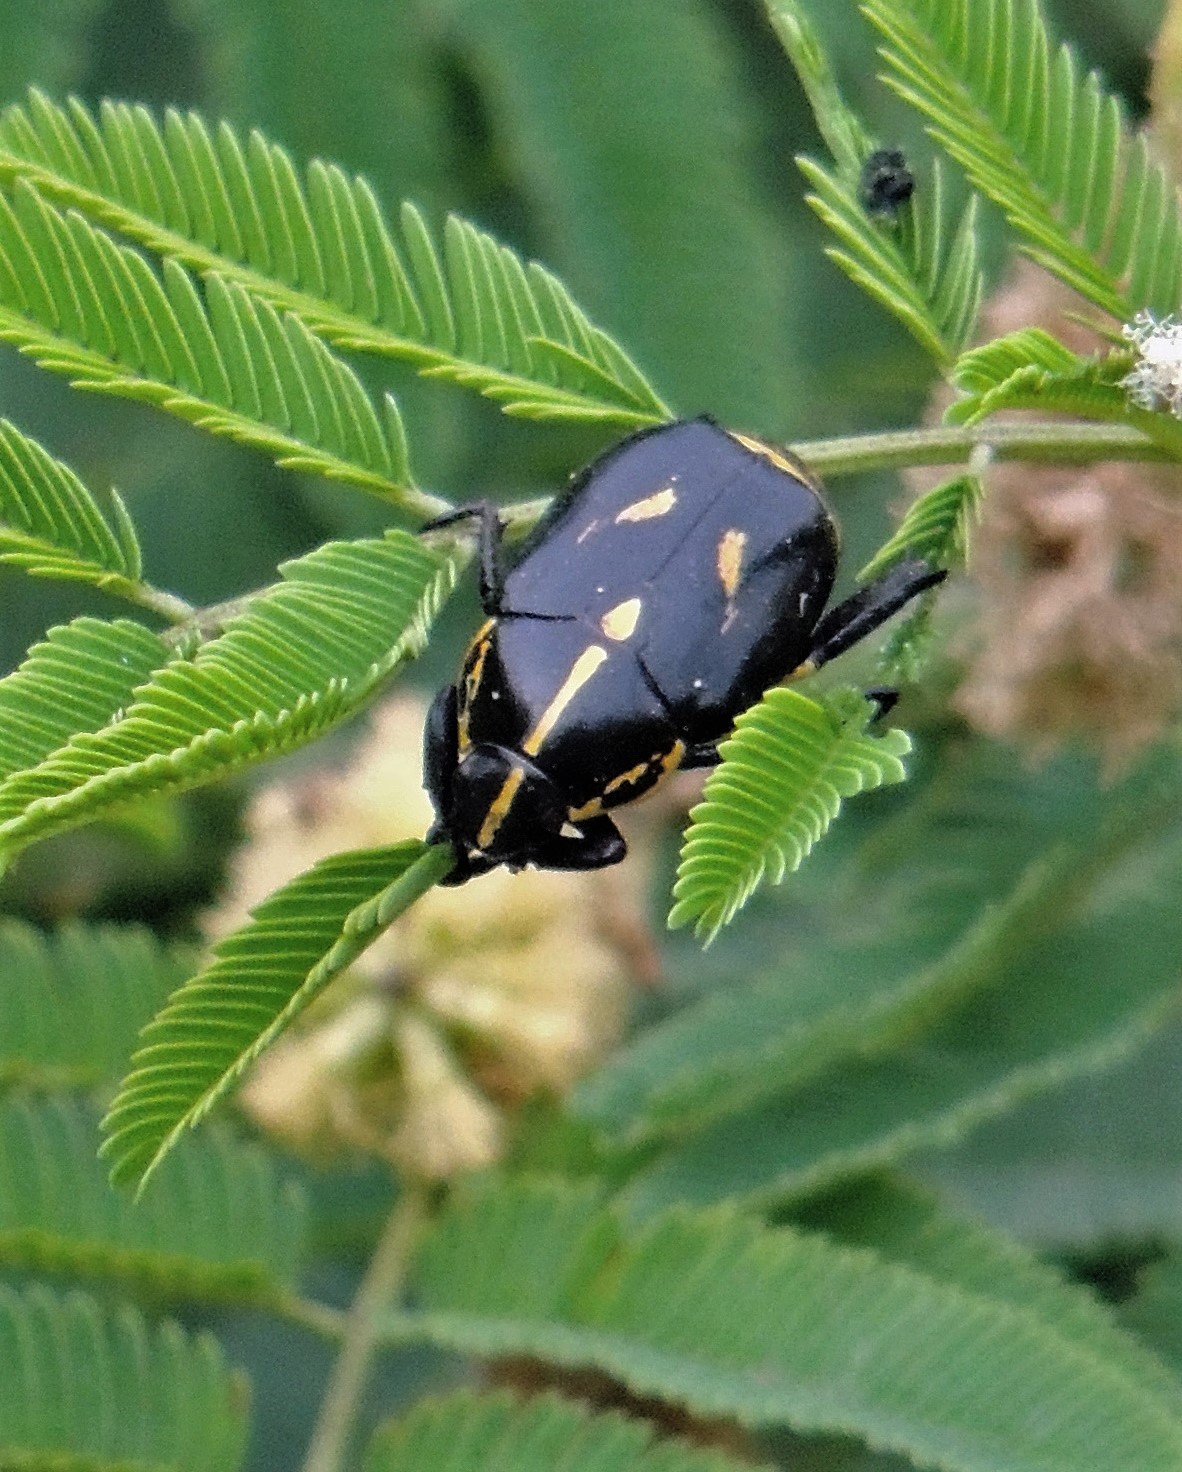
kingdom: Animalia
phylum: Arthropoda
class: Insecta
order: Coleoptera
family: Scarabaeidae
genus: Rutela
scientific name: Rutela lineola
